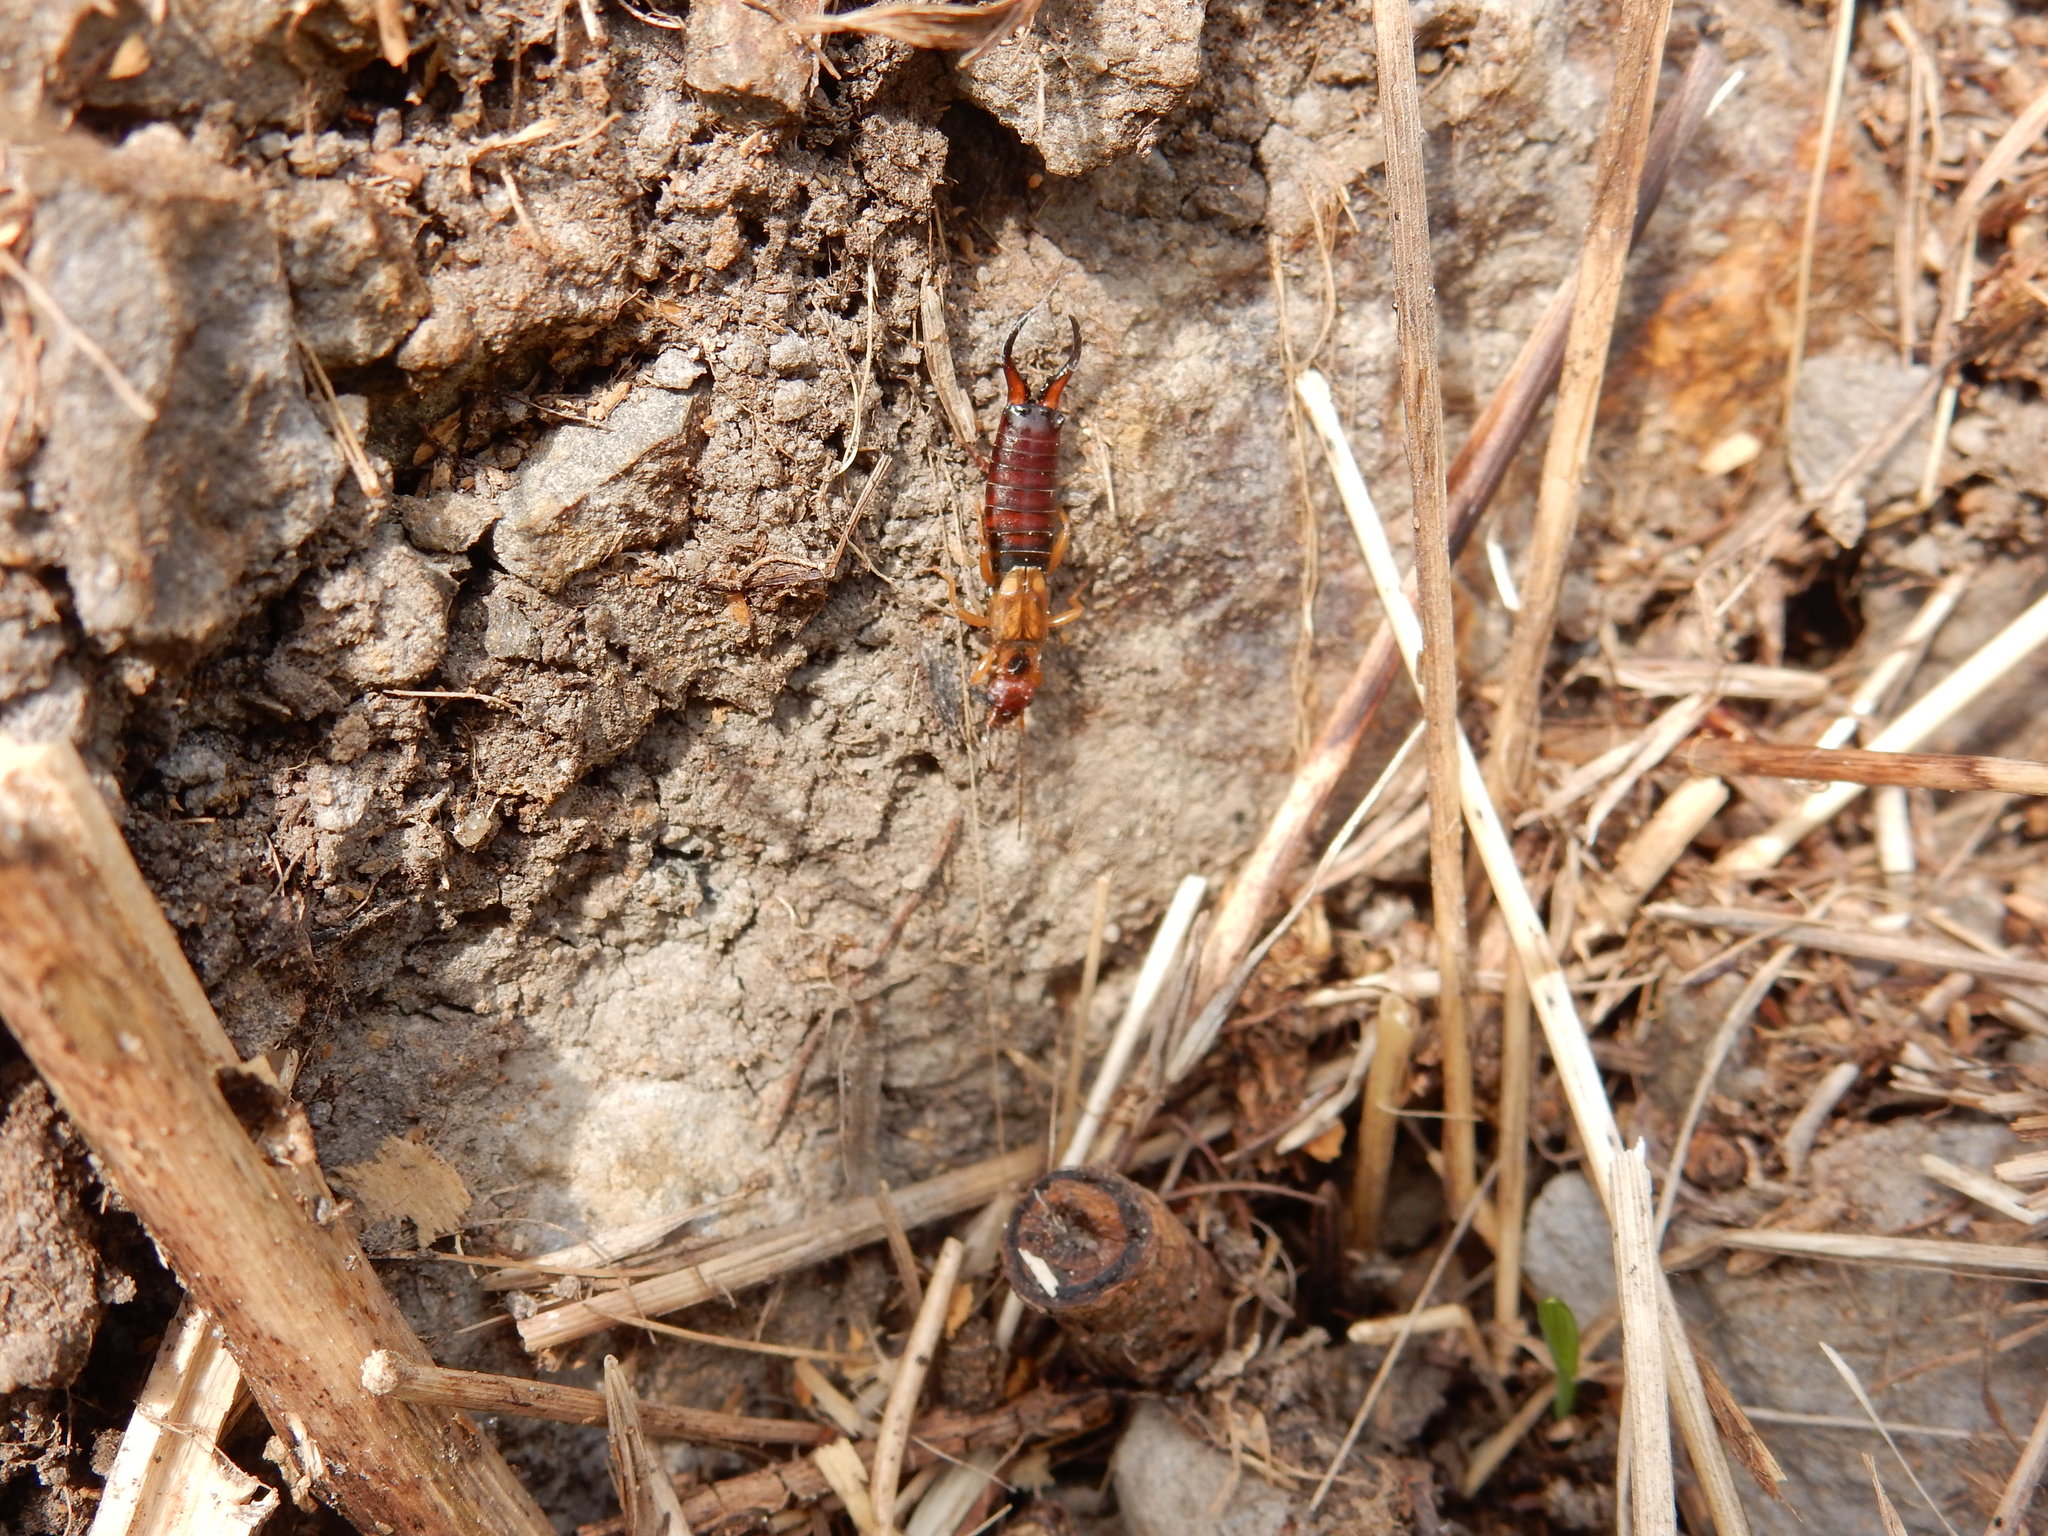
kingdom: Animalia
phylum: Arthropoda
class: Insecta
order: Dermaptera
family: Forficulidae
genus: Forficula
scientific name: Forficula
